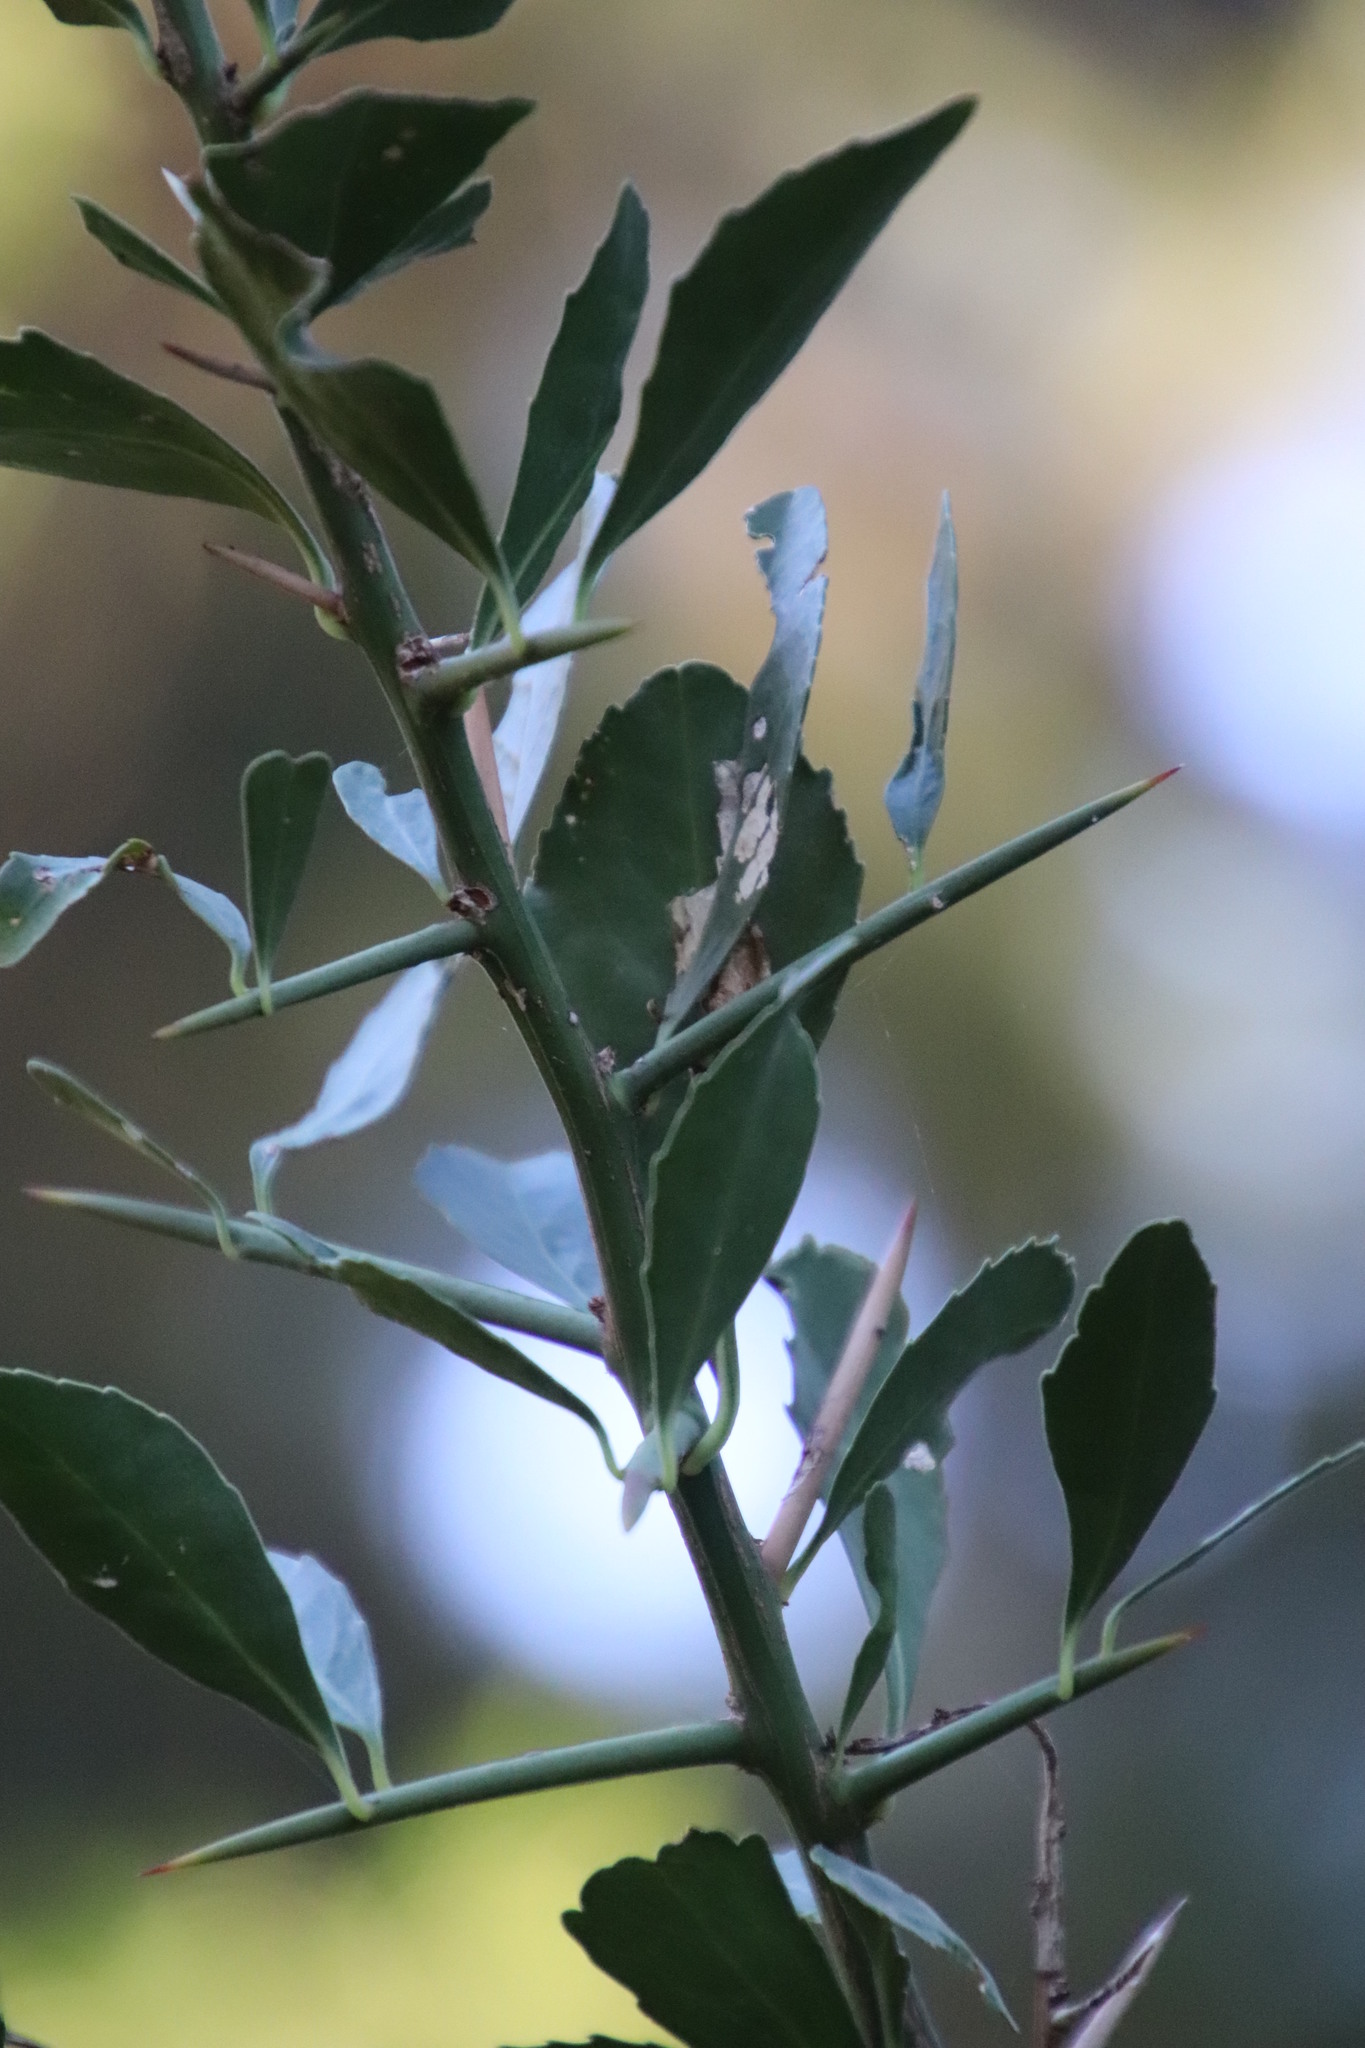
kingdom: Plantae
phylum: Tracheophyta
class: Magnoliopsida
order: Celastrales
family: Celastraceae
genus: Gymnosporia
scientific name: Gymnosporia buxifolia
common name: Common spike-thorn
